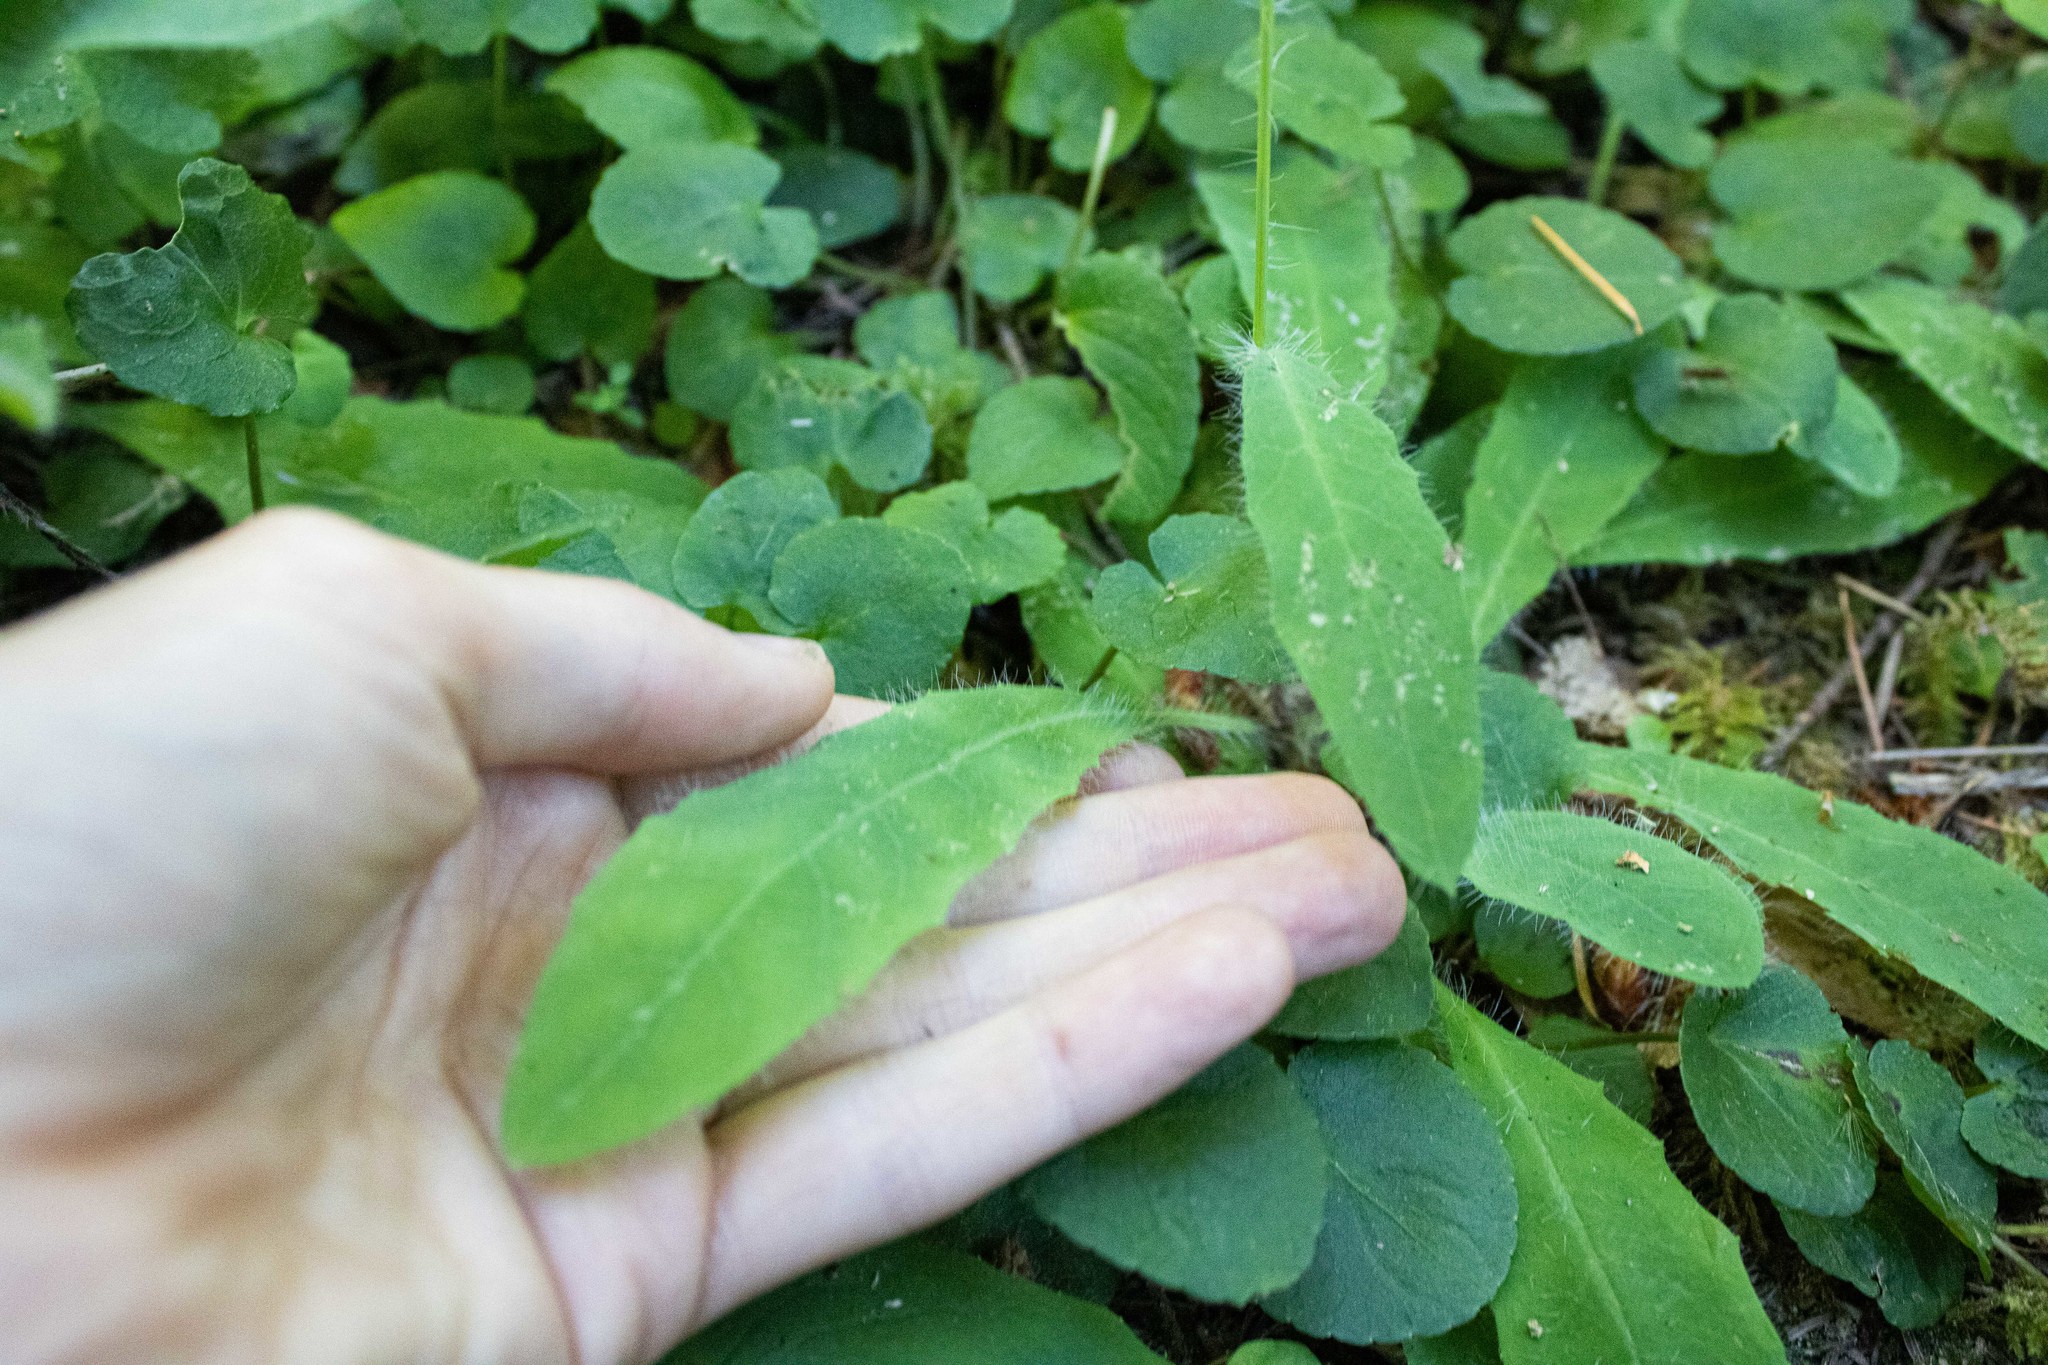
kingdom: Plantae
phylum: Tracheophyta
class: Magnoliopsida
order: Asterales
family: Asteraceae
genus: Hieracium
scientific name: Hieracium albiflorum
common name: White hawkweed
